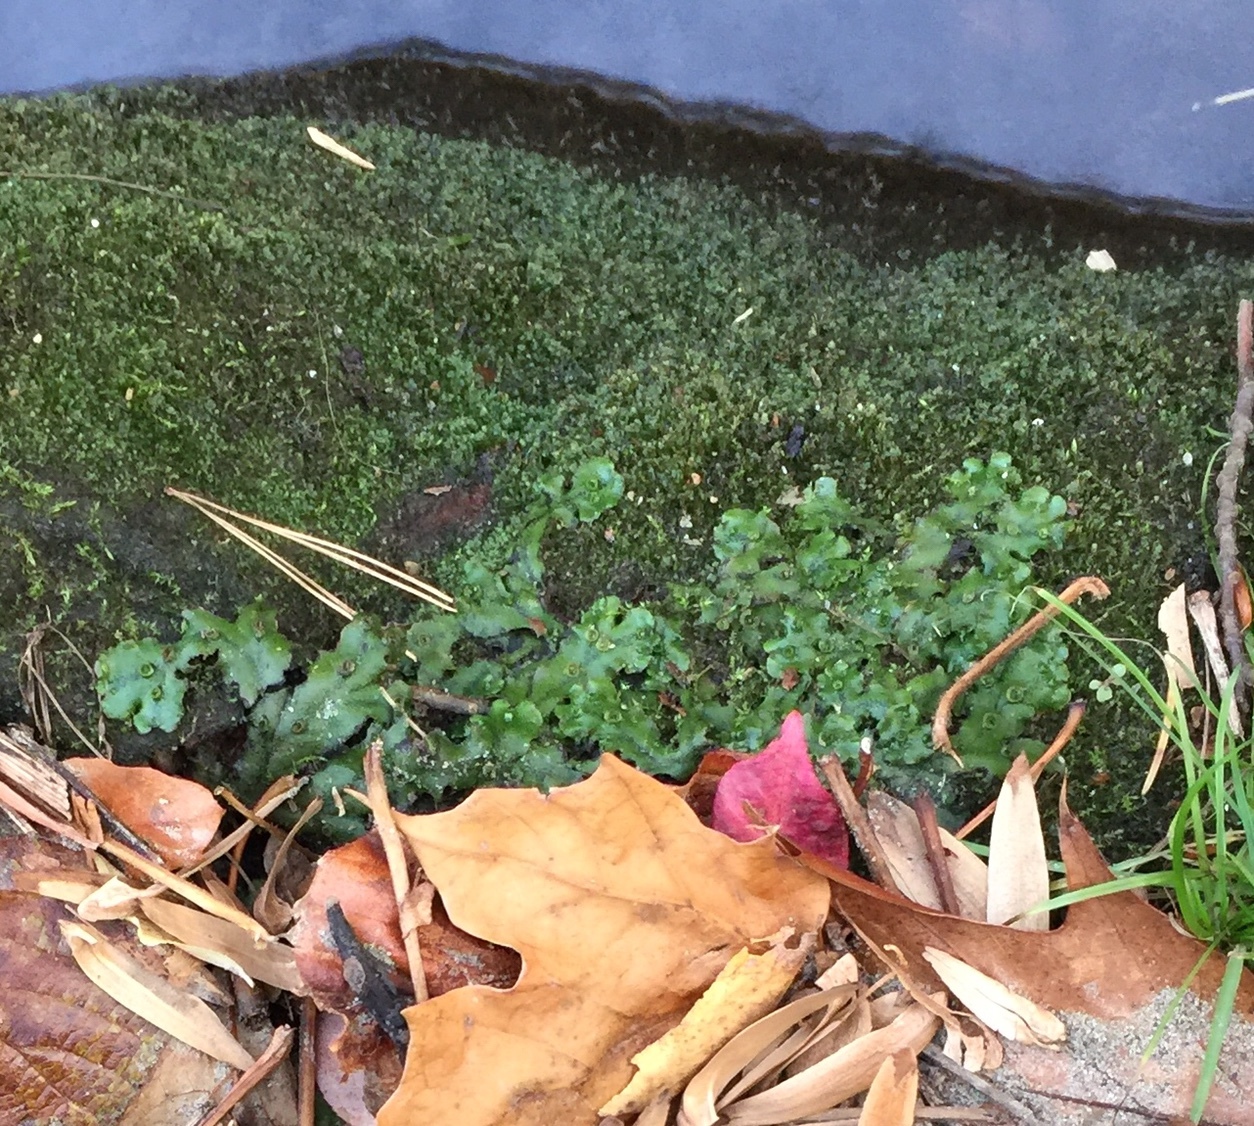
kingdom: Plantae
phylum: Marchantiophyta
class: Marchantiopsida
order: Marchantiales
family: Marchantiaceae
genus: Marchantia
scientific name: Marchantia polymorpha
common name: Common liverwort
